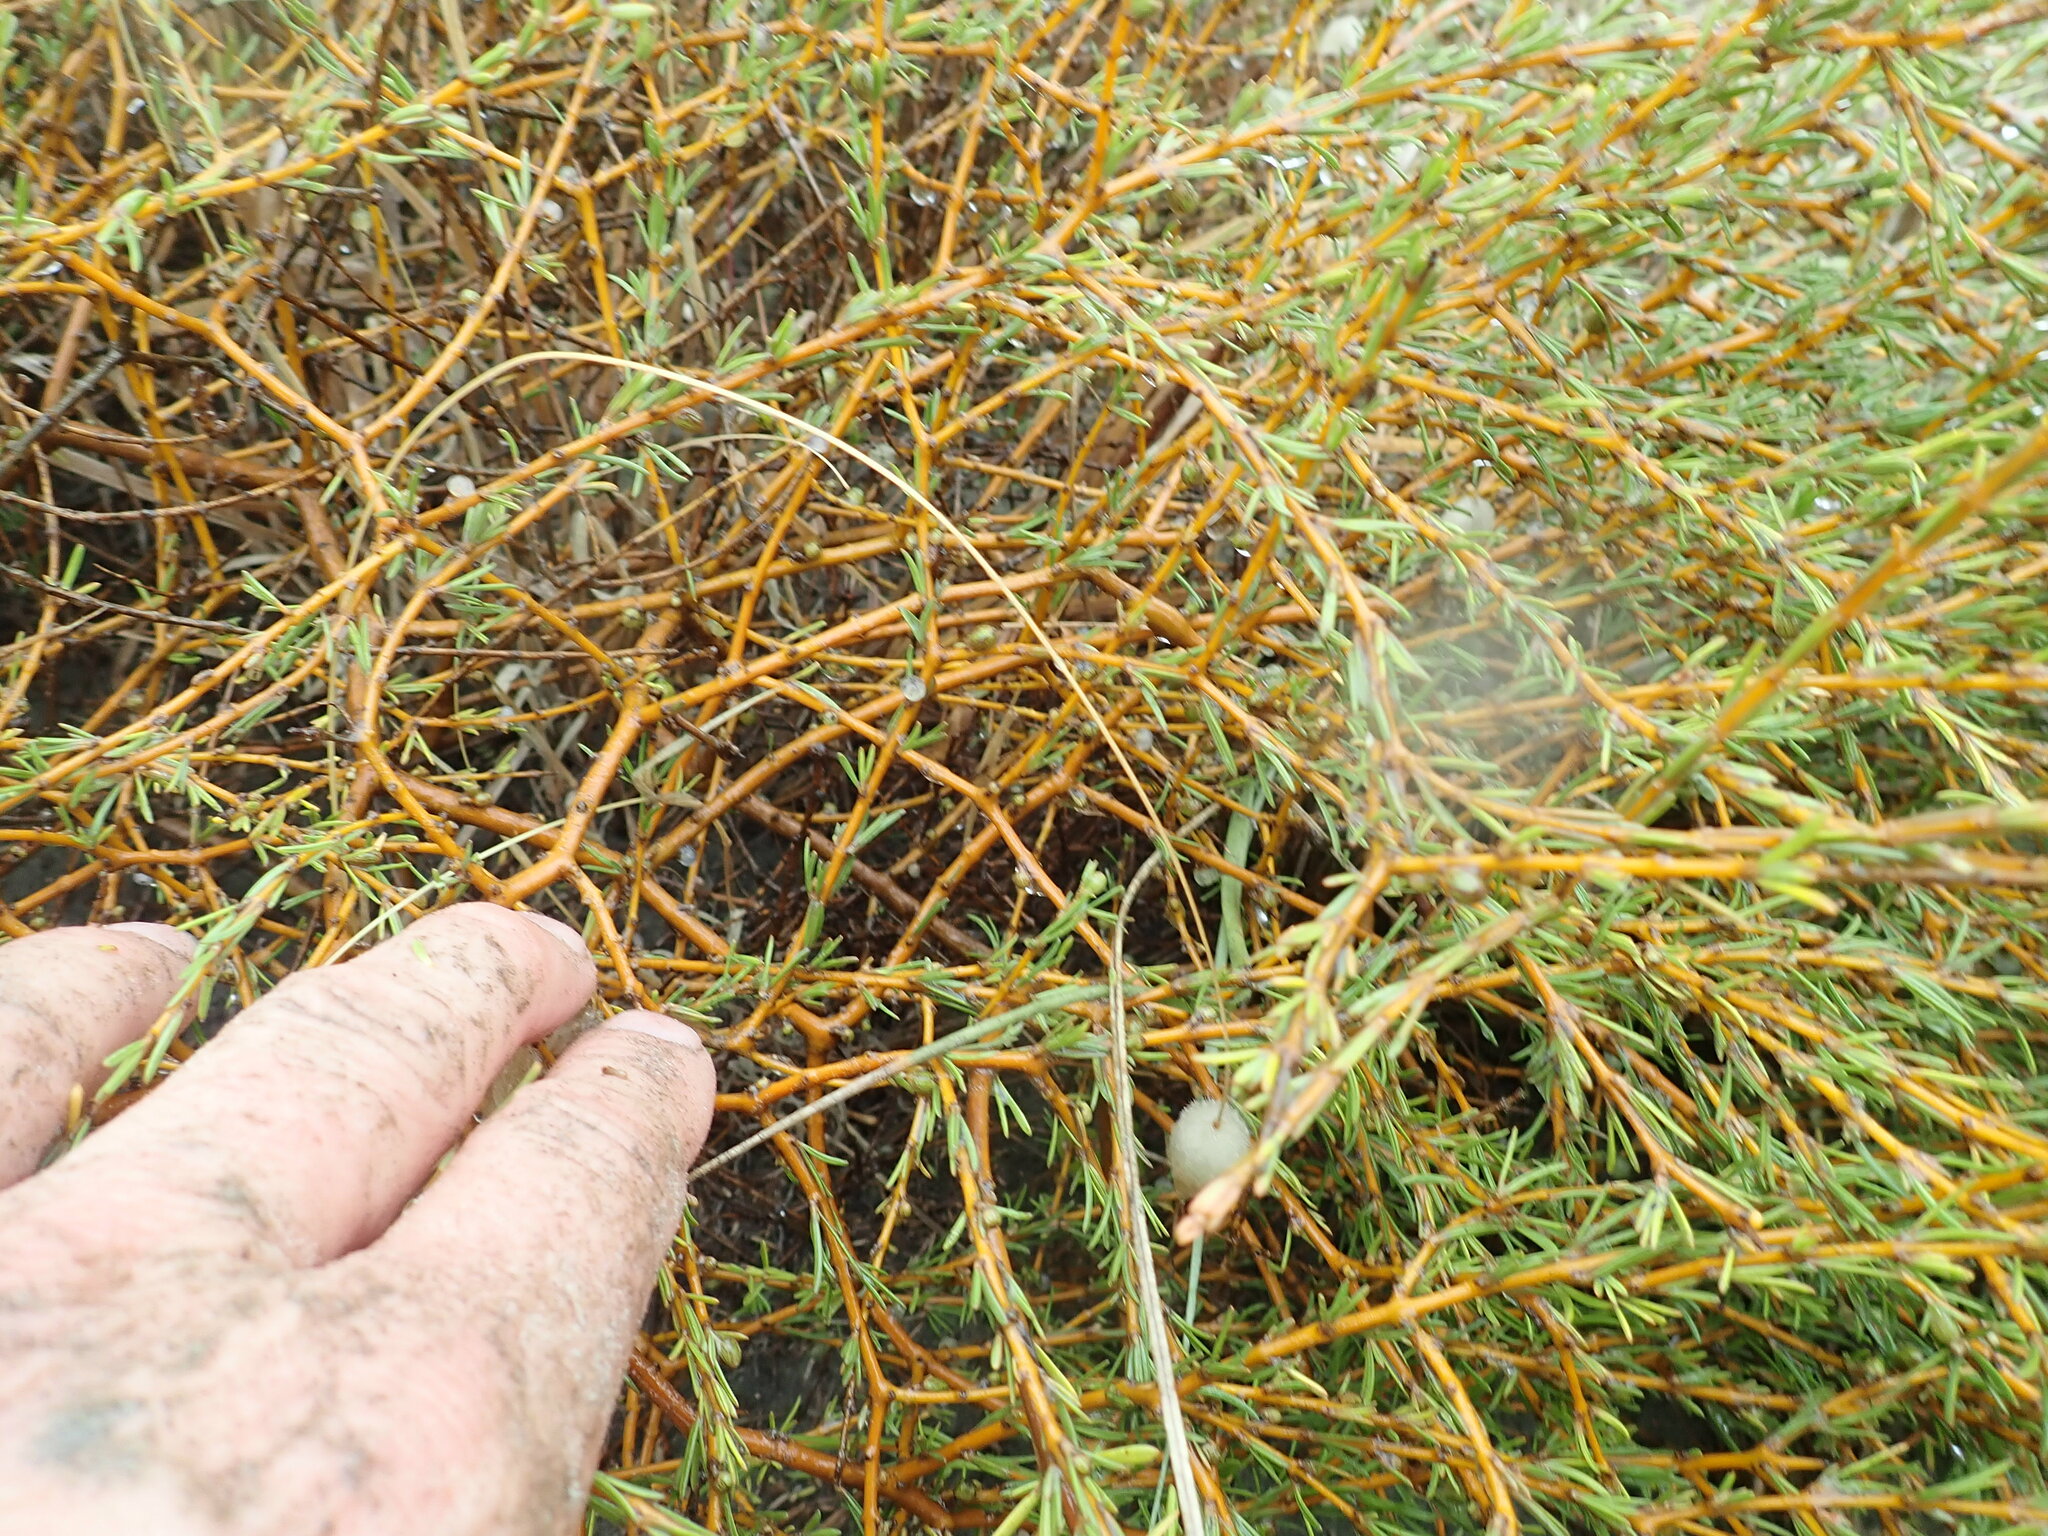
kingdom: Plantae
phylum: Tracheophyta
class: Magnoliopsida
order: Gentianales
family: Rubiaceae
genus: Coprosma
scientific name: Coprosma acerosa
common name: Sand coprosma
